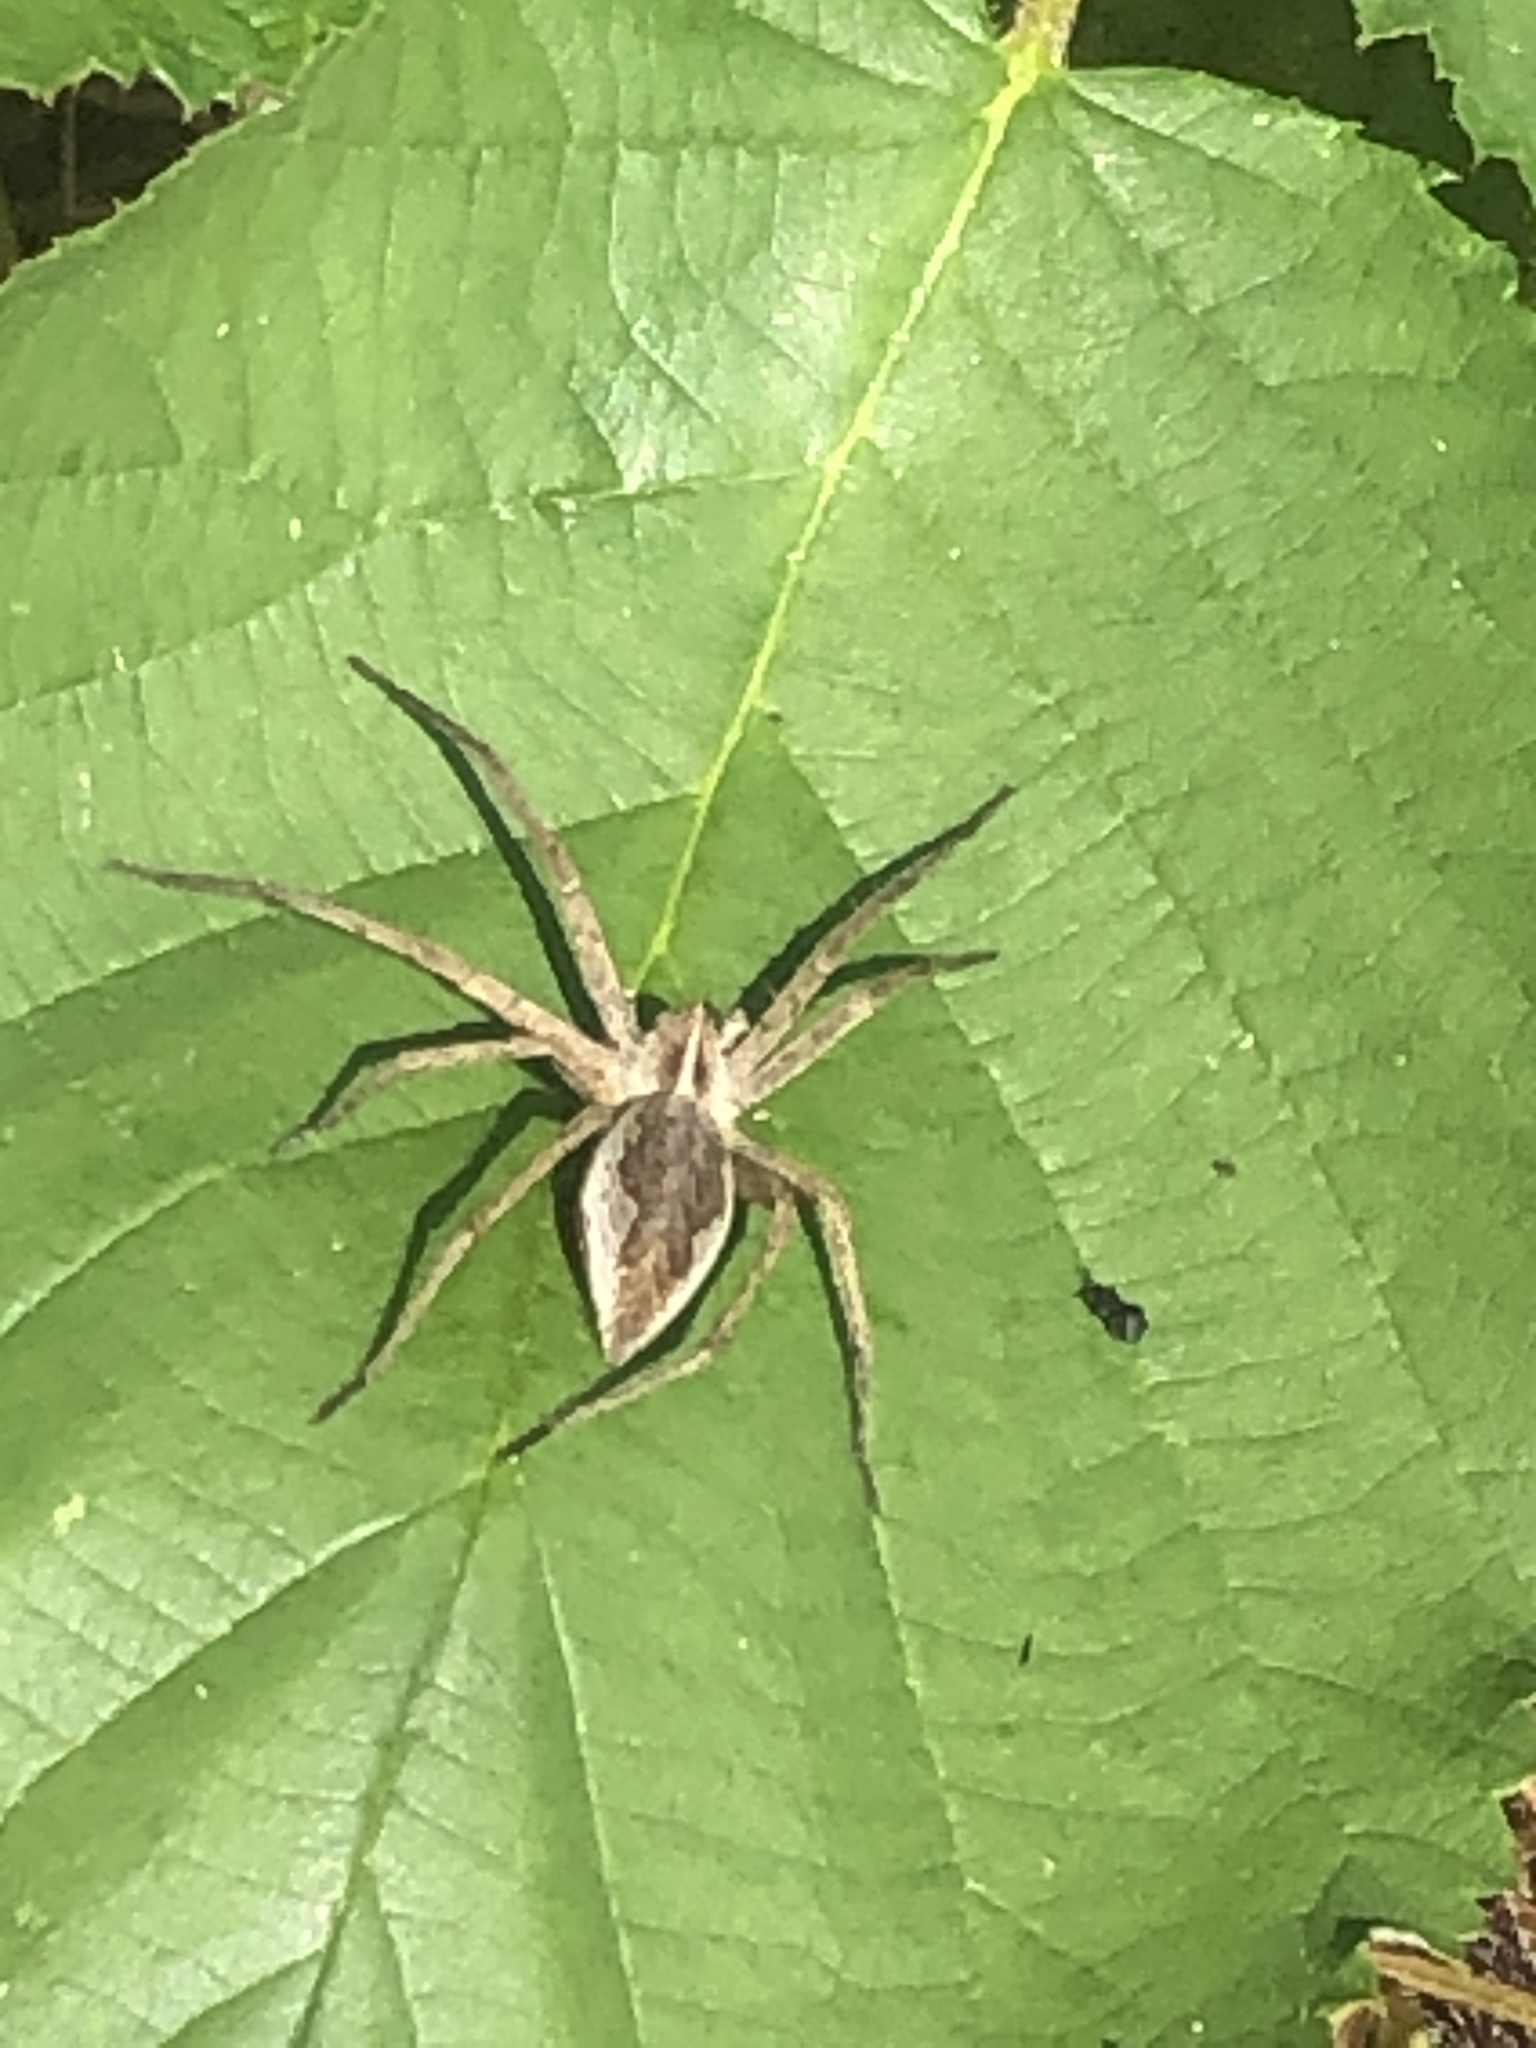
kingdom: Animalia
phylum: Arthropoda
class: Arachnida
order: Araneae
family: Pisauridae
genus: Pisaura
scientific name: Pisaura mirabilis
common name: Tent spider
